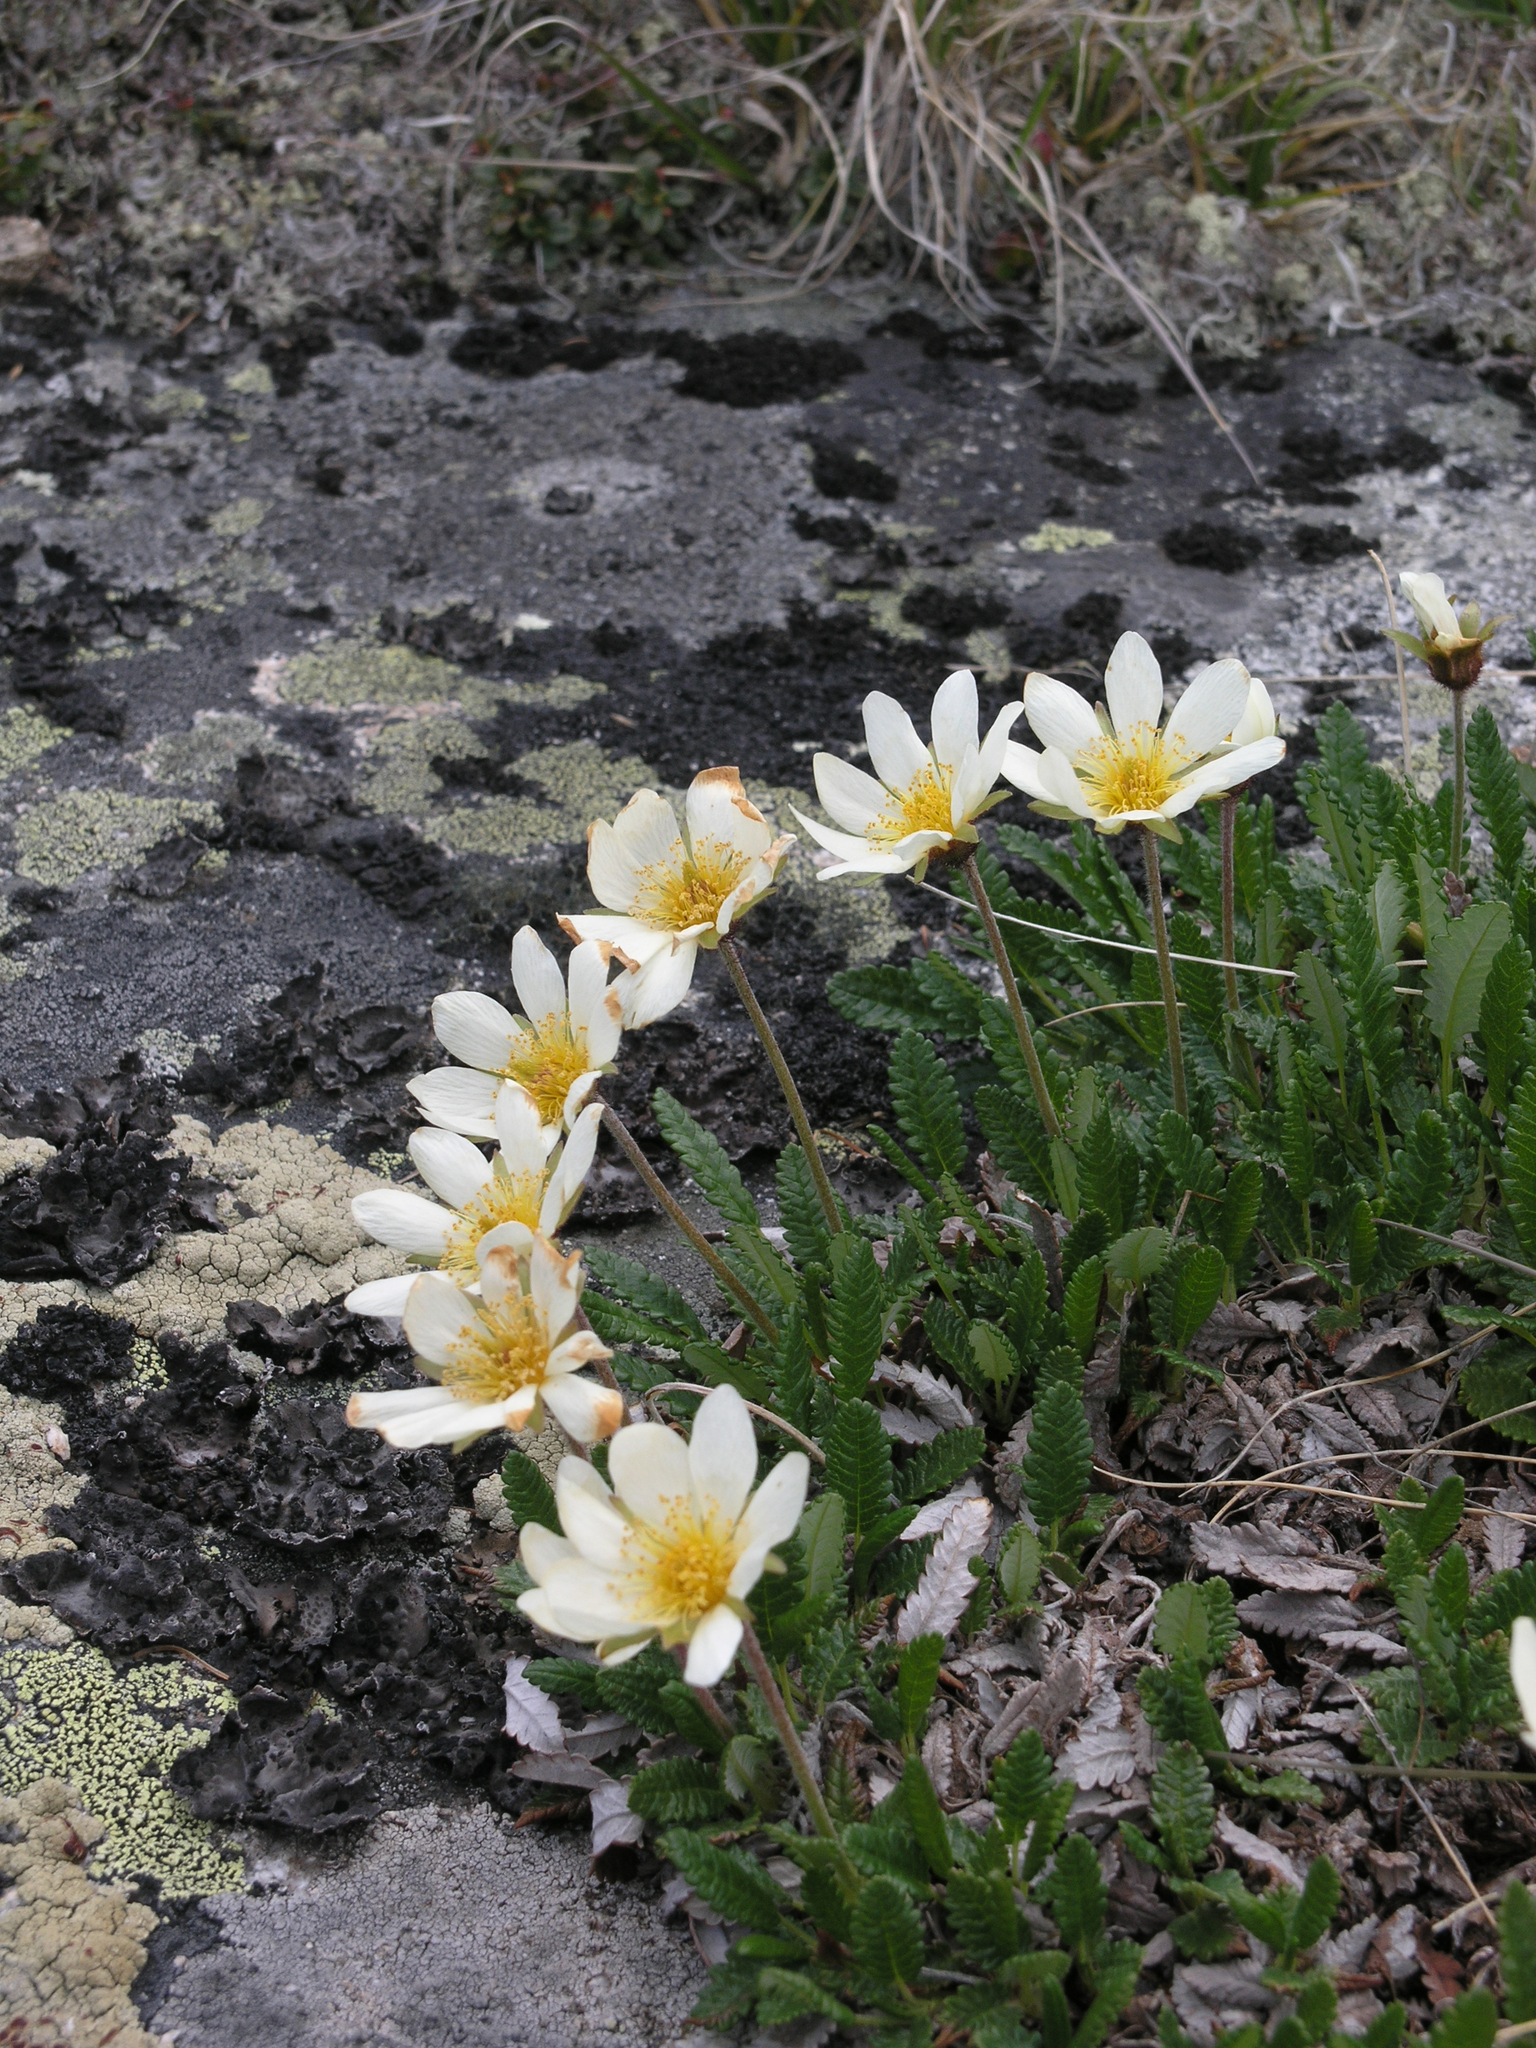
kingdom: Plantae
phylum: Tracheophyta
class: Magnoliopsida
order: Rosales
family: Rosaceae
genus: Dryas
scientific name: Dryas octopetala
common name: Eight-petal mountain-avens
